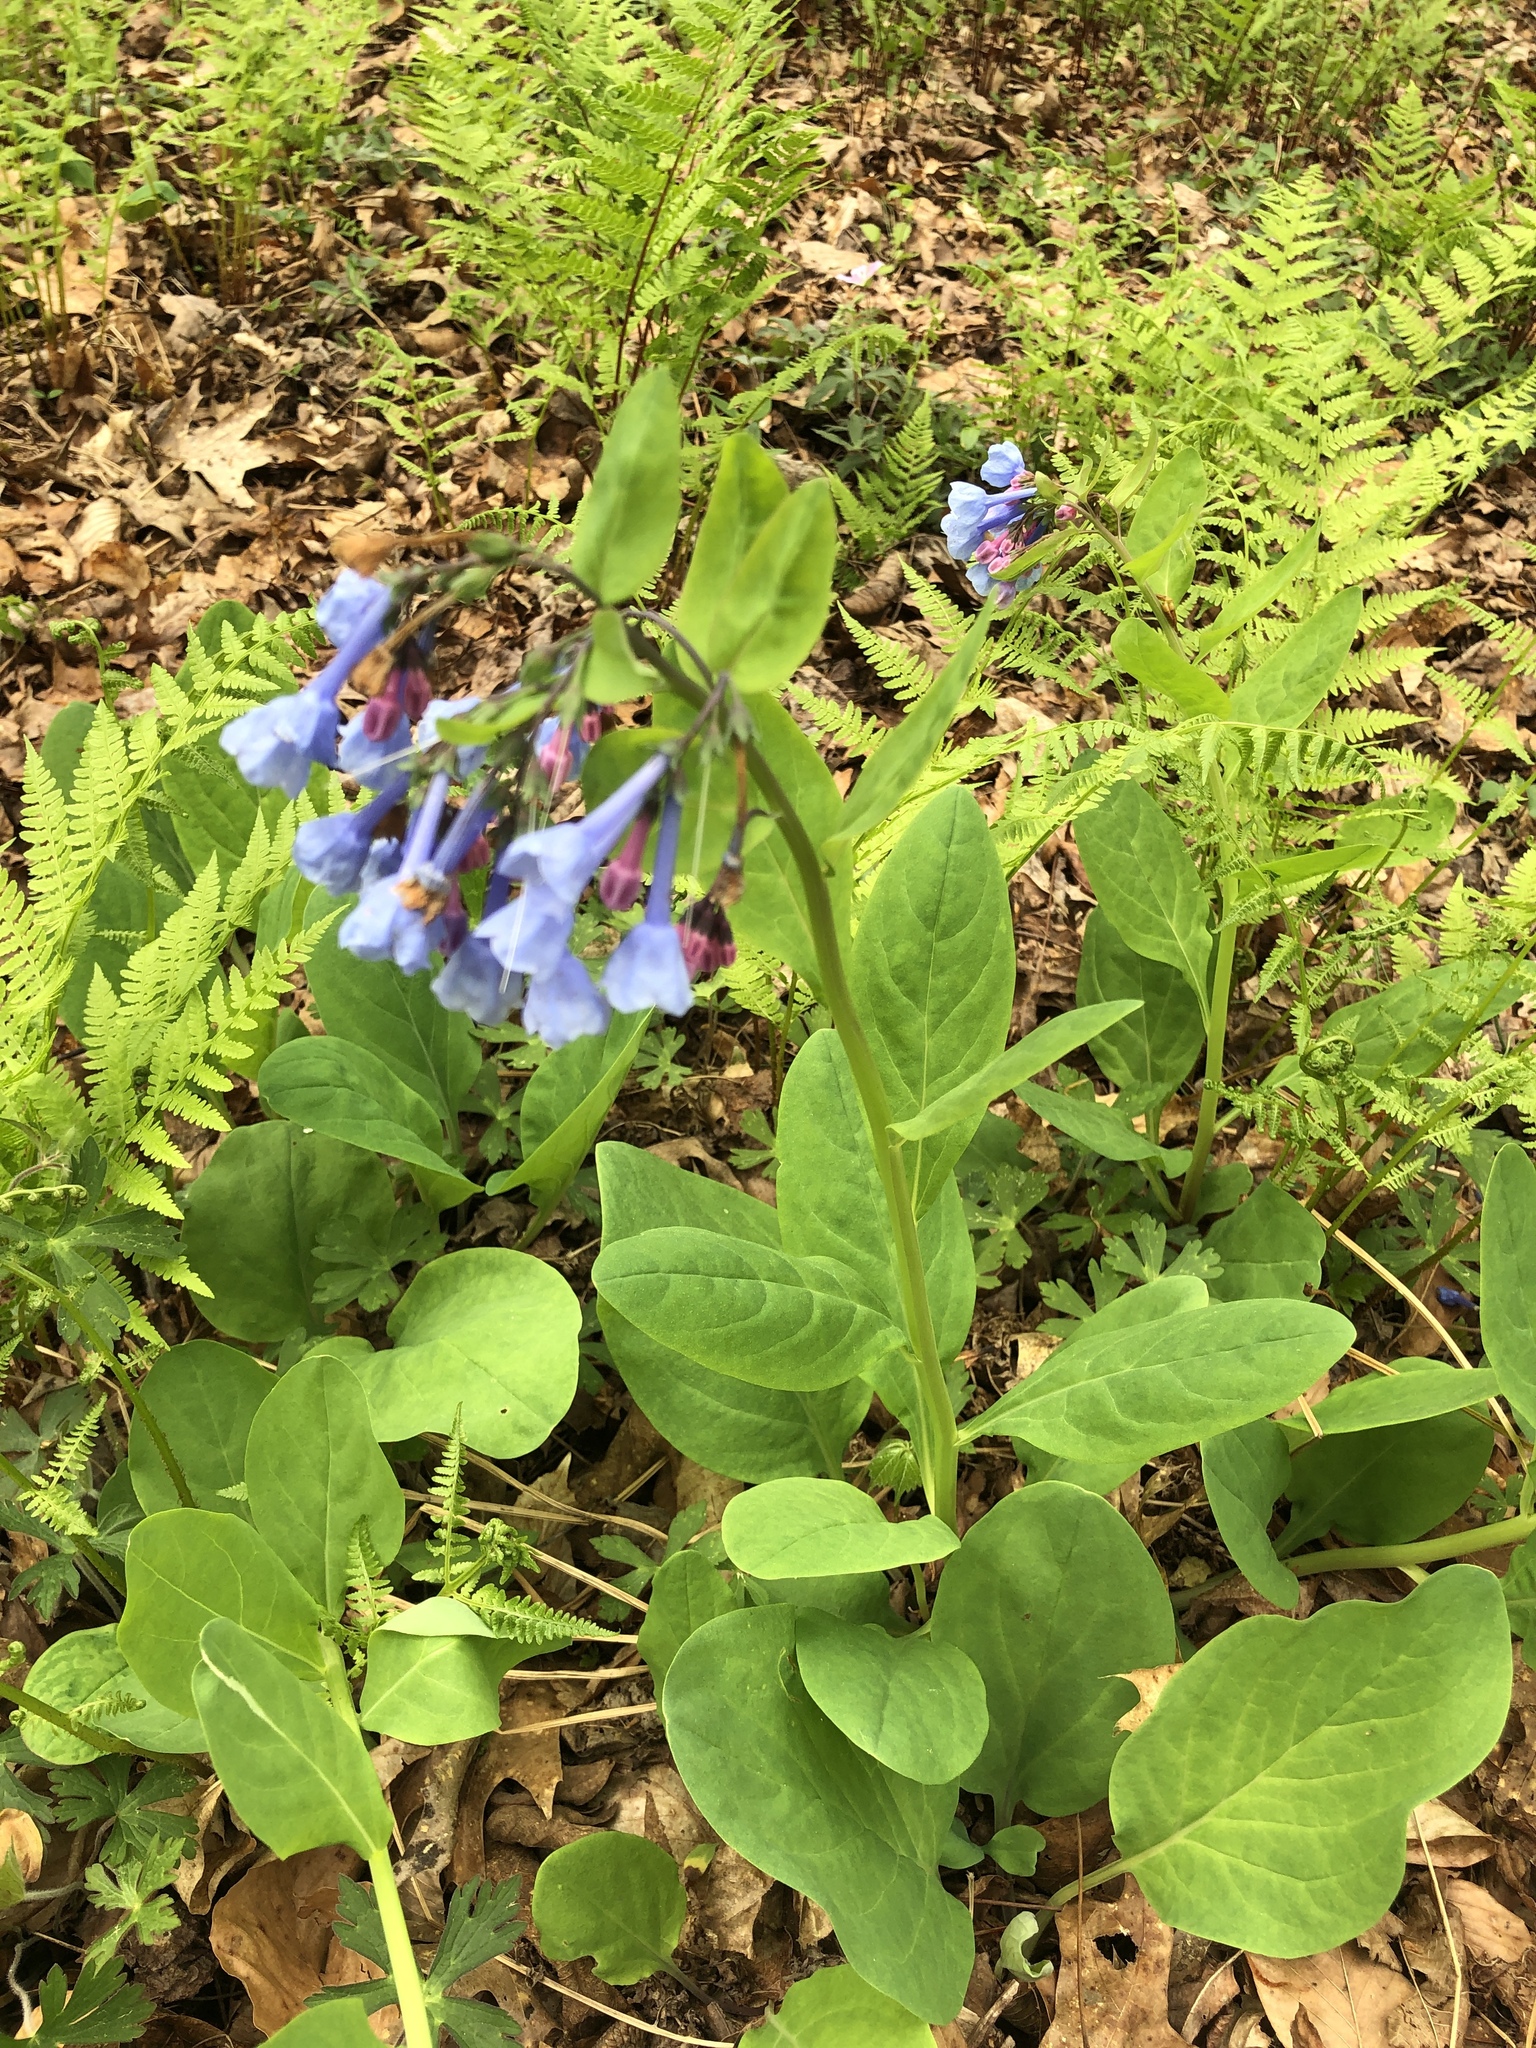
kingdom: Plantae
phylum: Tracheophyta
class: Magnoliopsida
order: Boraginales
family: Boraginaceae
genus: Mertensia
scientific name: Mertensia virginica
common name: Virginia bluebells
